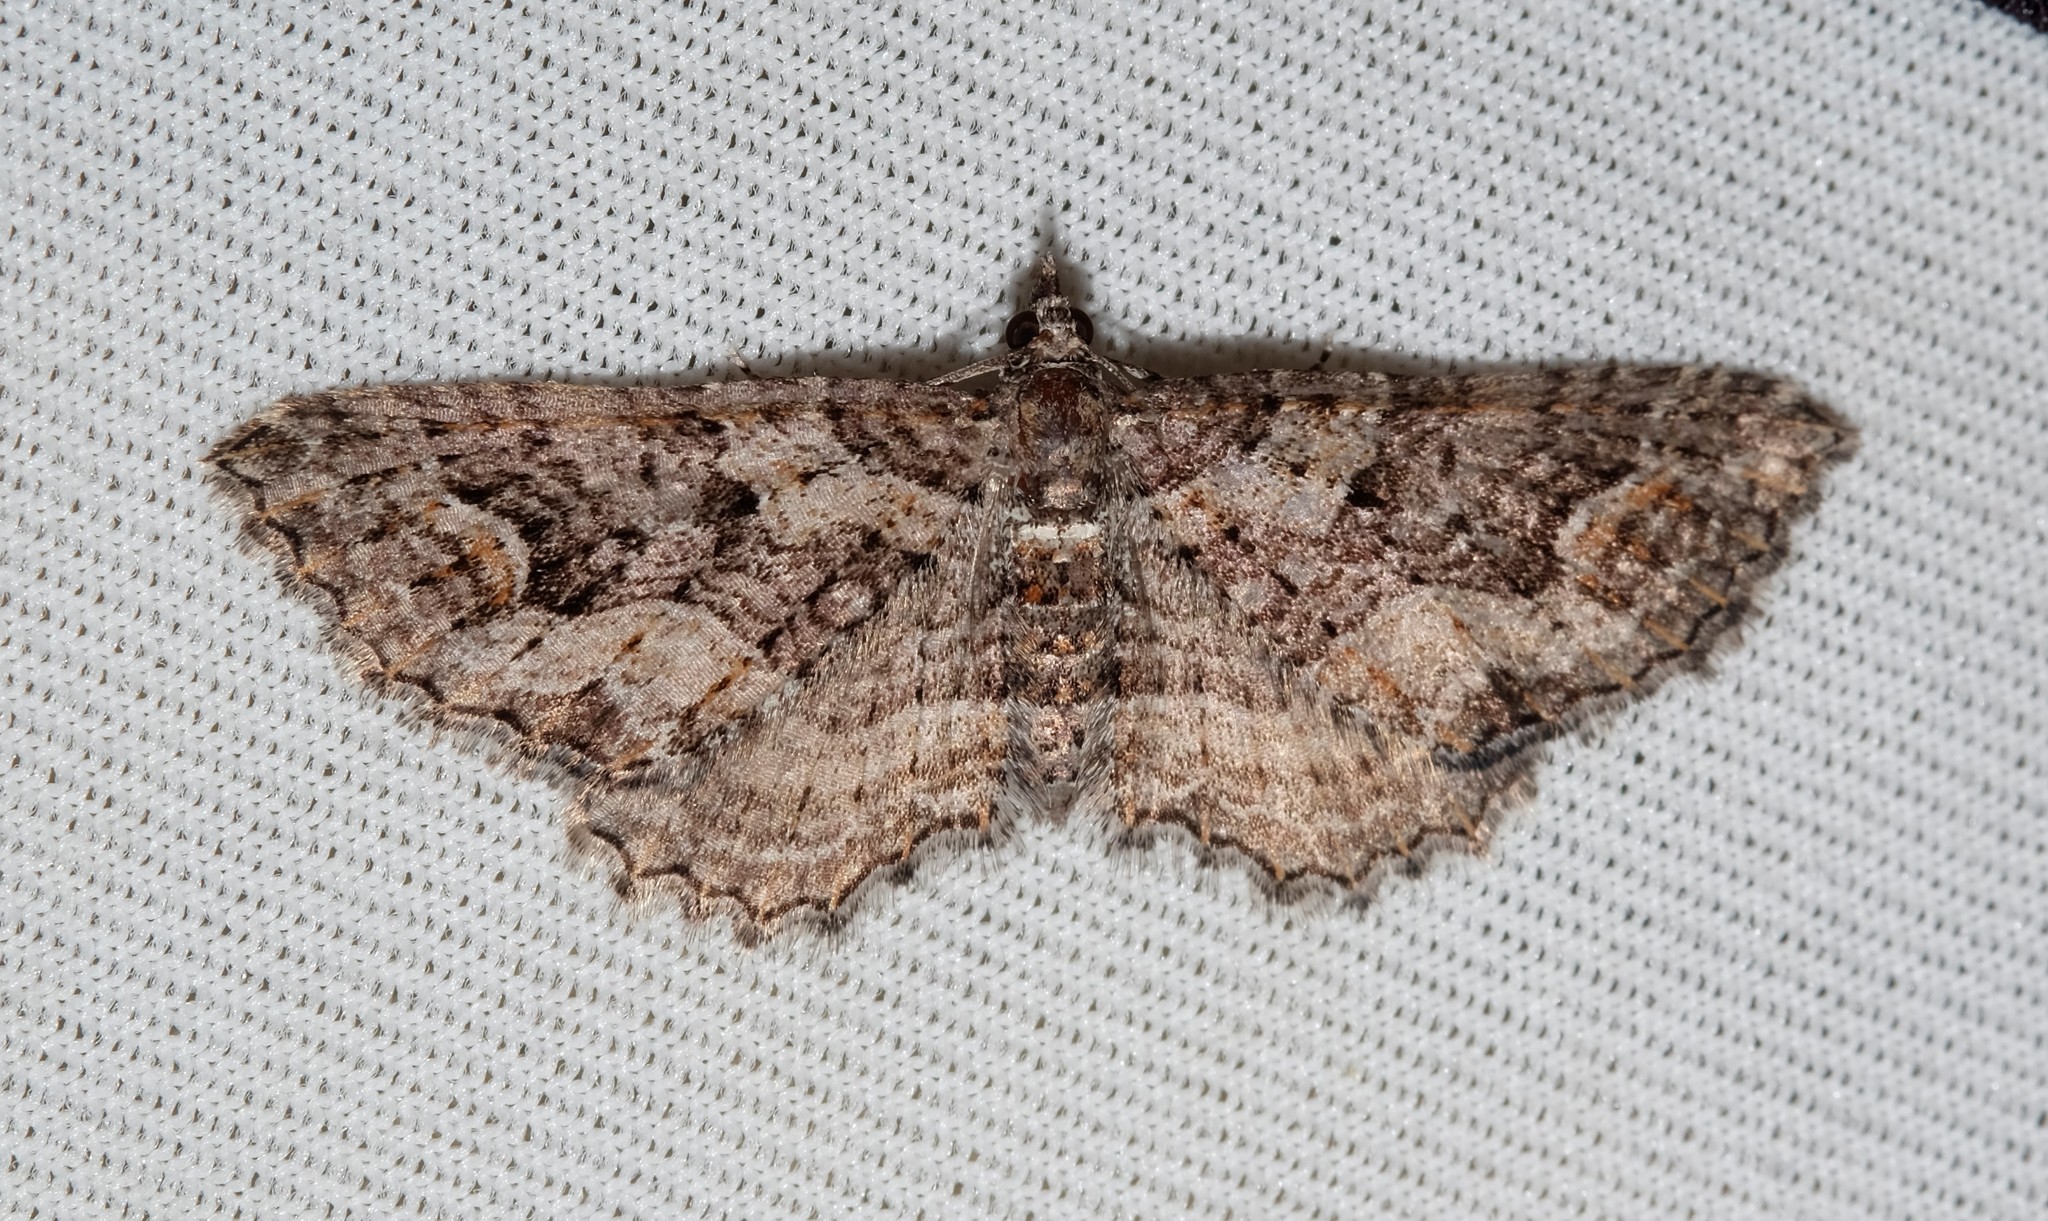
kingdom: Animalia
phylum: Arthropoda
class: Insecta
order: Lepidoptera
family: Geometridae
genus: Chrysolarentia
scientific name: Chrysolarentia plesia
